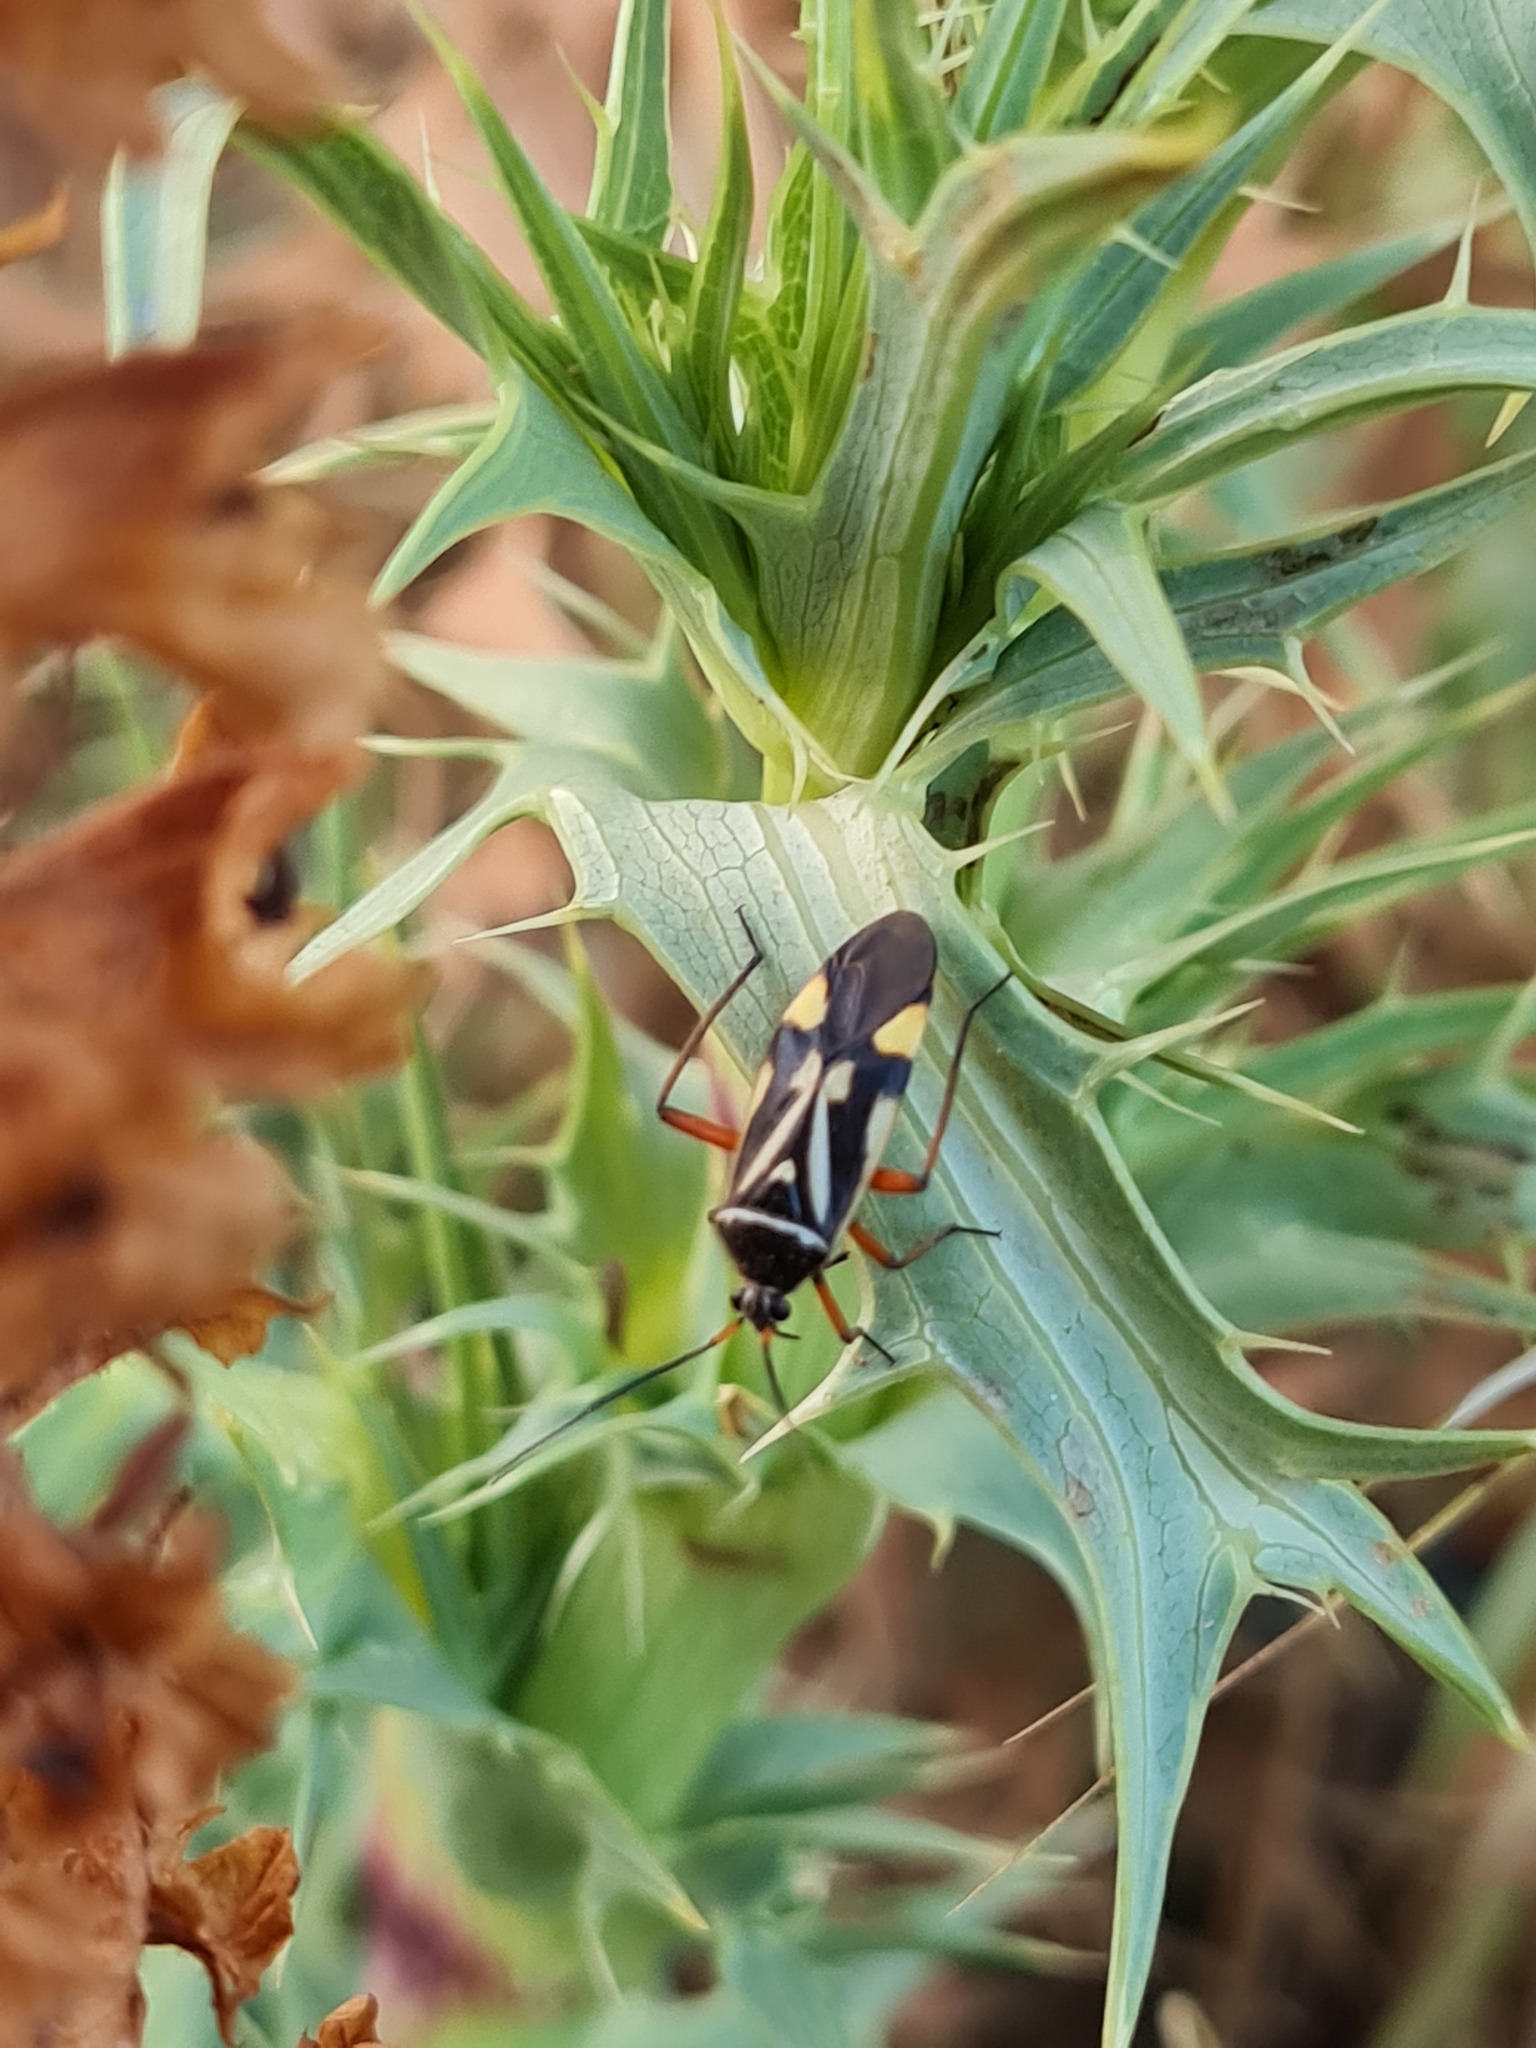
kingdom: Animalia
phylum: Arthropoda
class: Insecta
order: Hemiptera
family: Miridae
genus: Brachycoleus
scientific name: Brachycoleus steini
